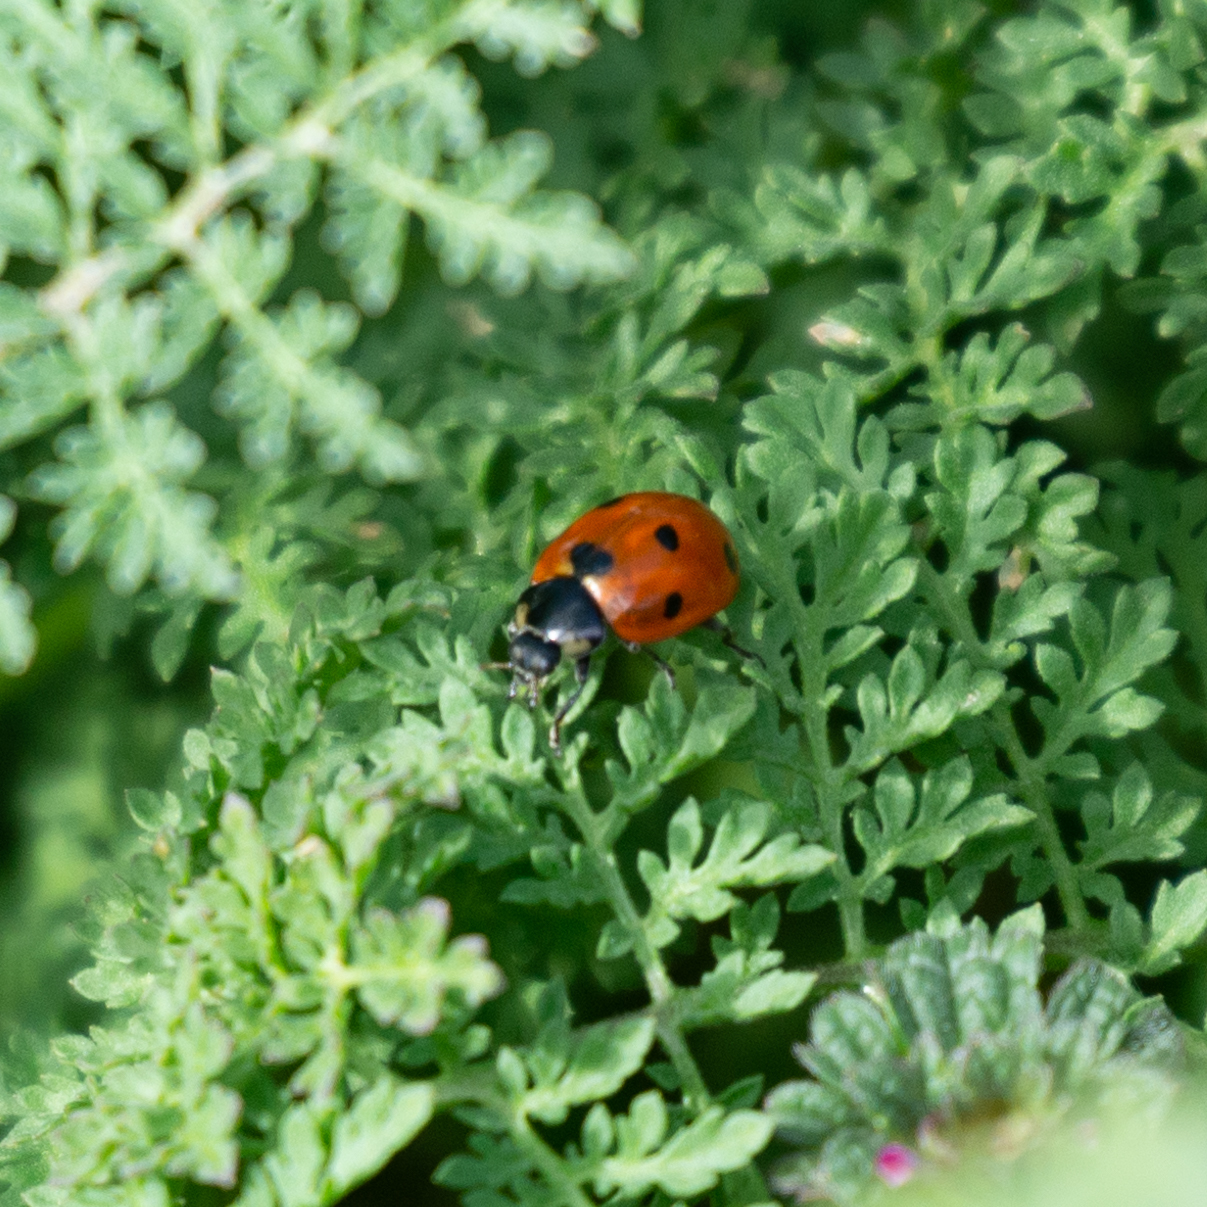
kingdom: Animalia
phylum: Arthropoda
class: Insecta
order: Coleoptera
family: Coccinellidae
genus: Coccinella
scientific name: Coccinella septempunctata
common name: Sevenspotted lady beetle
